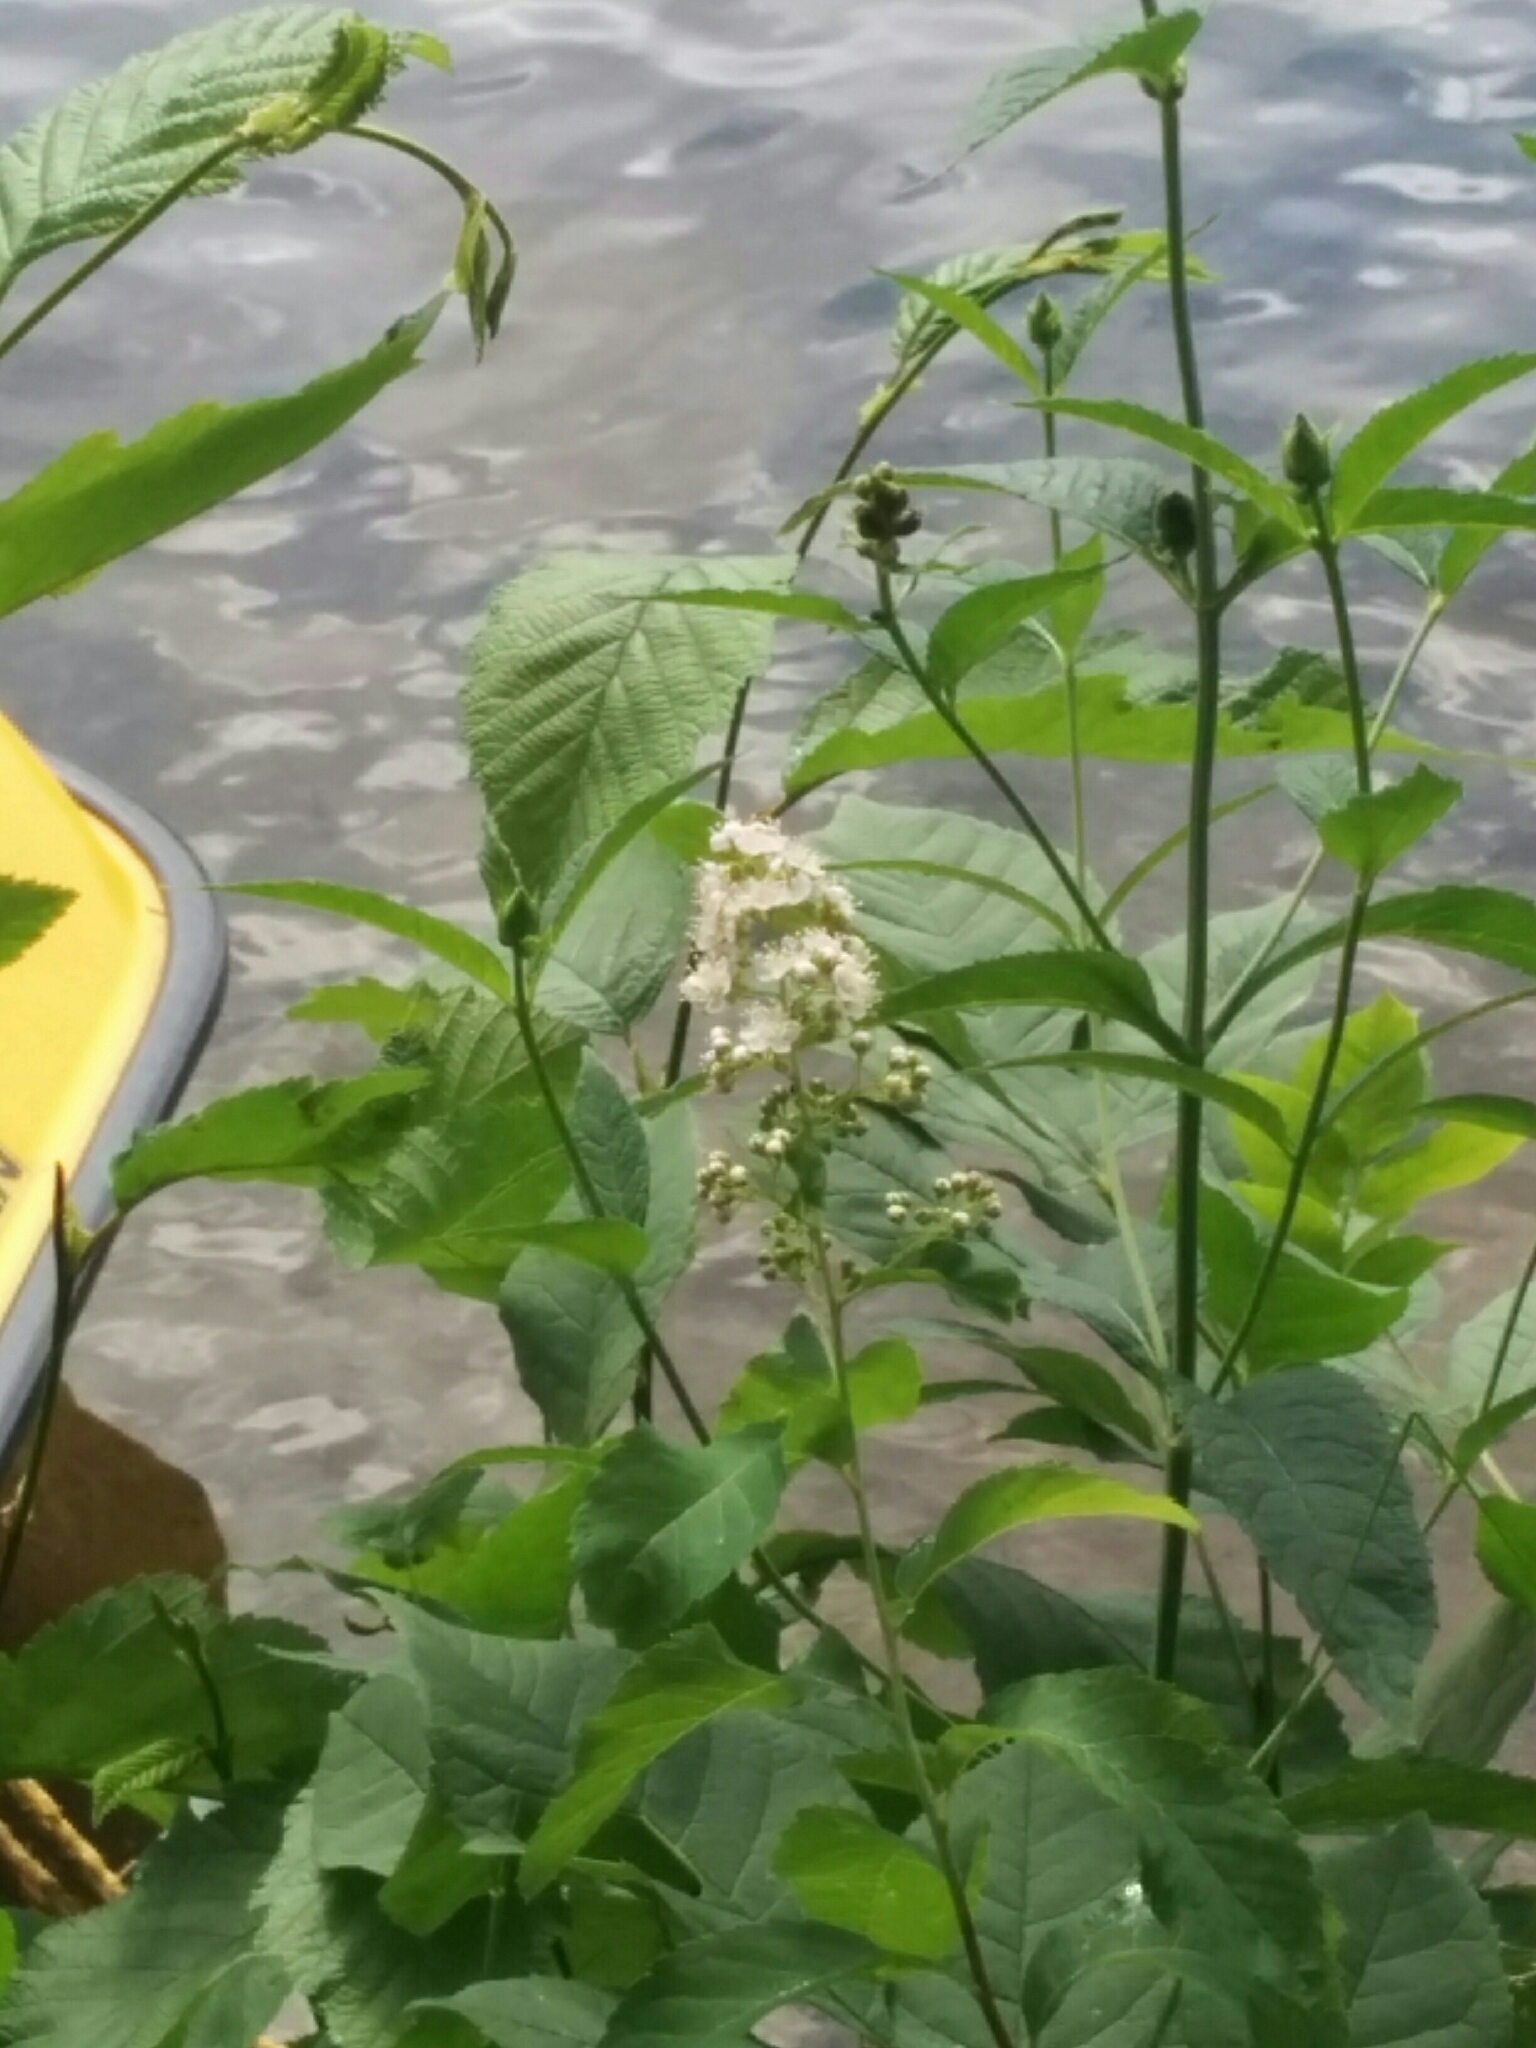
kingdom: Plantae
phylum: Tracheophyta
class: Magnoliopsida
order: Rosales
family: Rosaceae
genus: Spiraea
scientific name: Spiraea alba
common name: Pale bridewort
